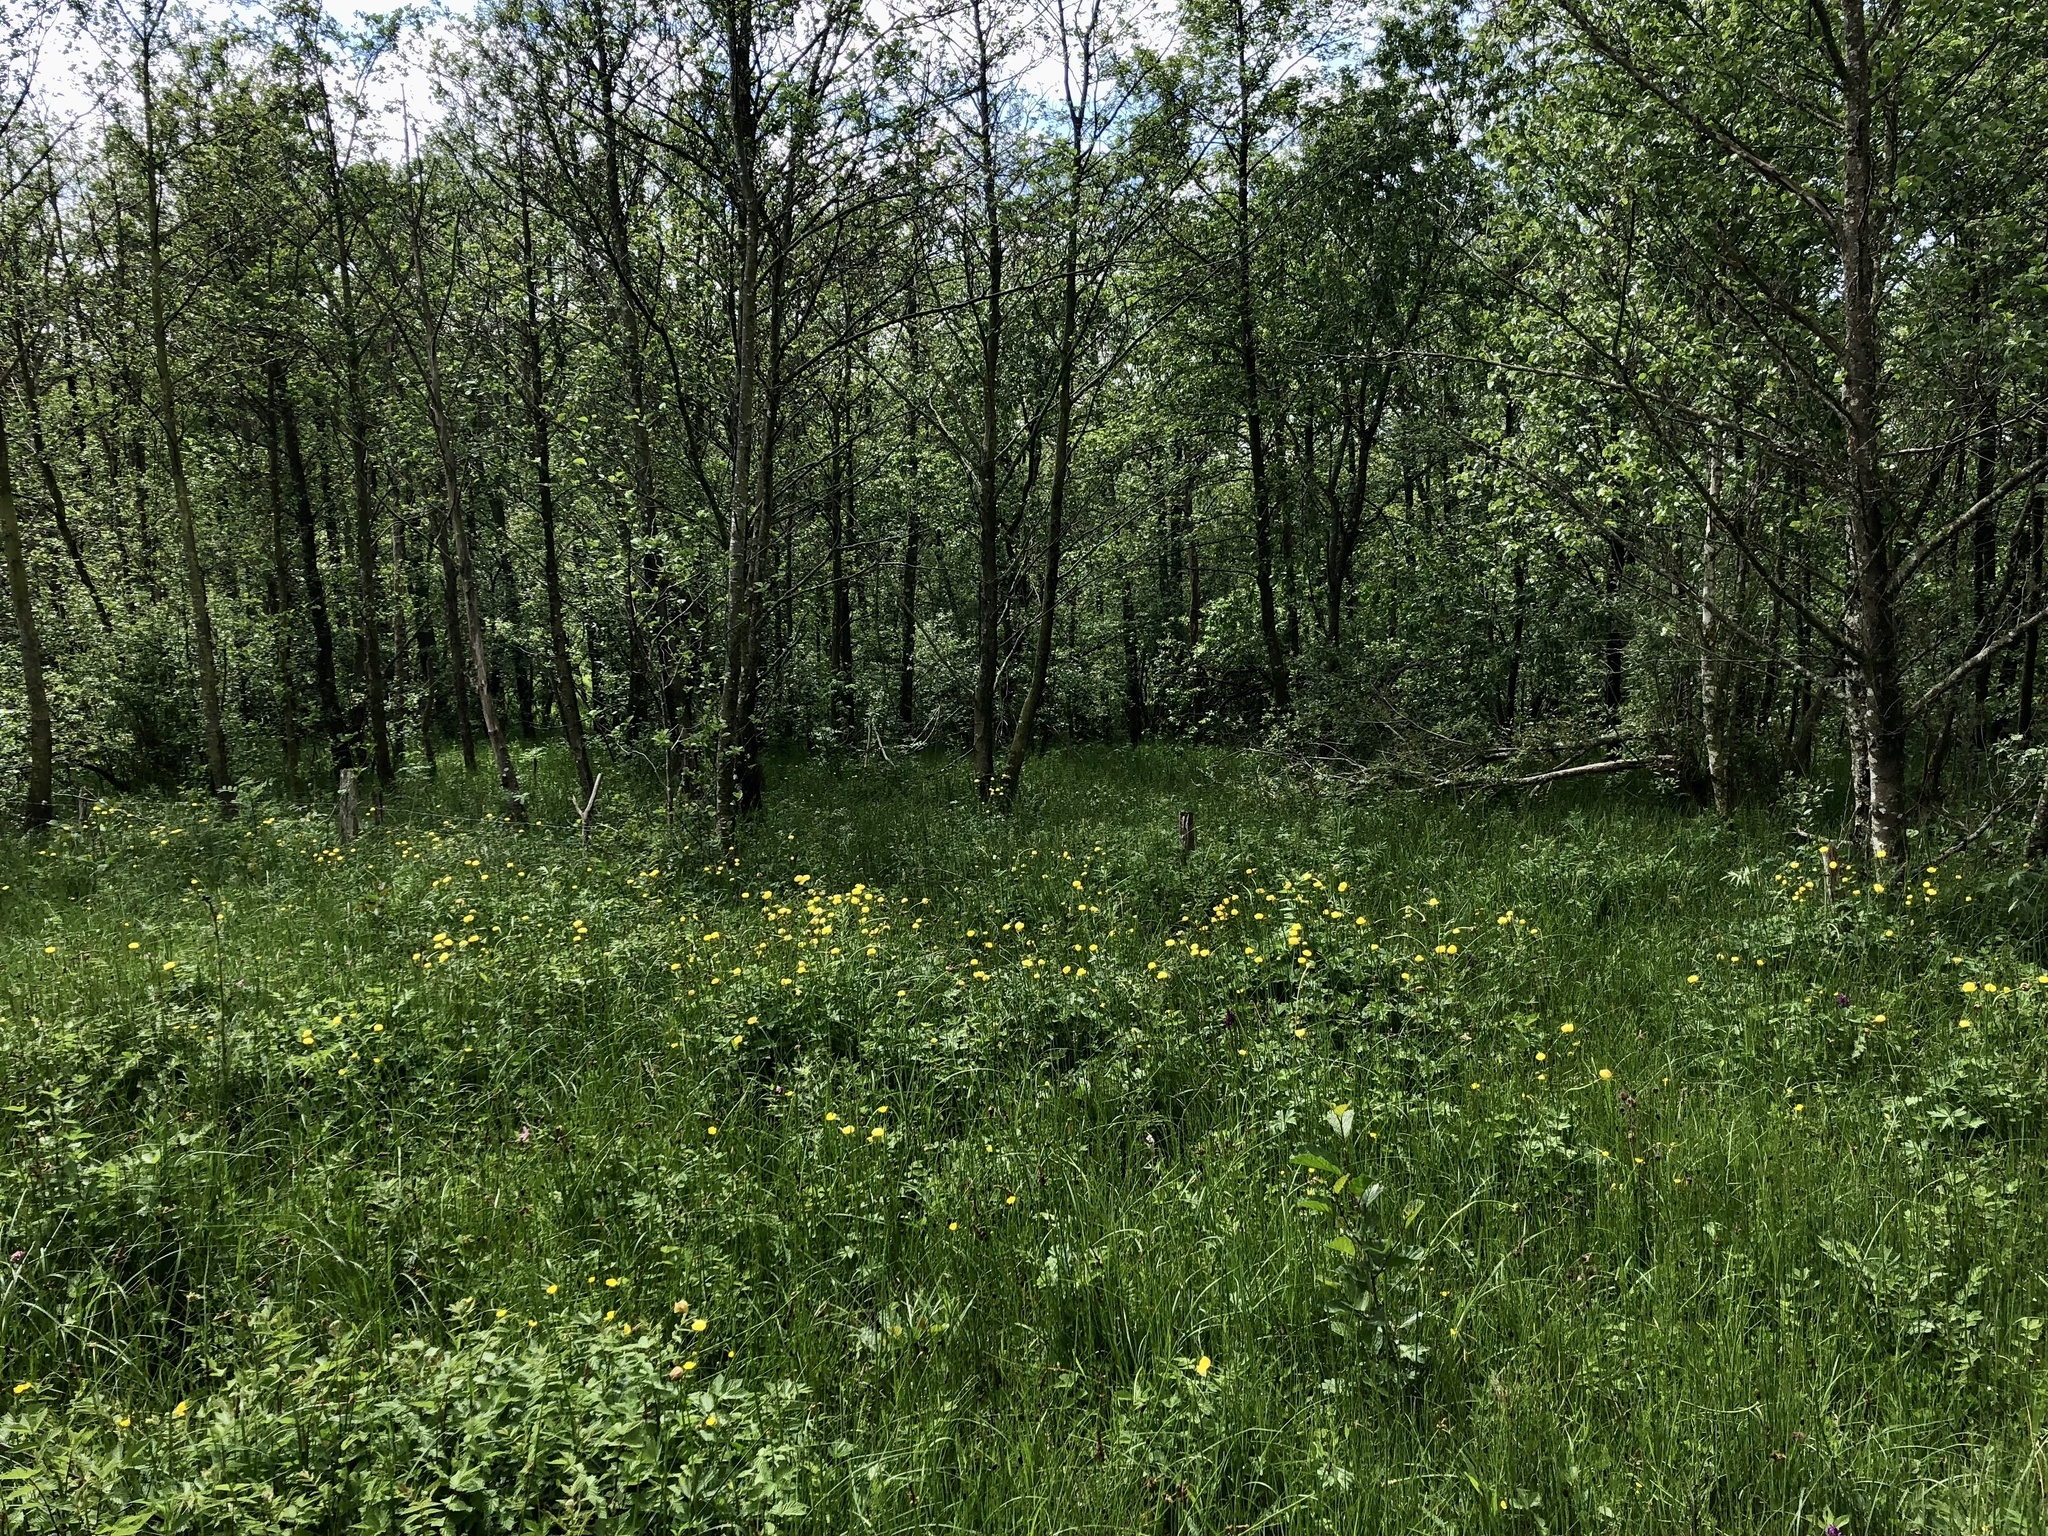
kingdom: Plantae
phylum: Tracheophyta
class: Magnoliopsida
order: Ranunculales
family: Ranunculaceae
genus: Trollius
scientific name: Trollius europaeus
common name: European globeflower
